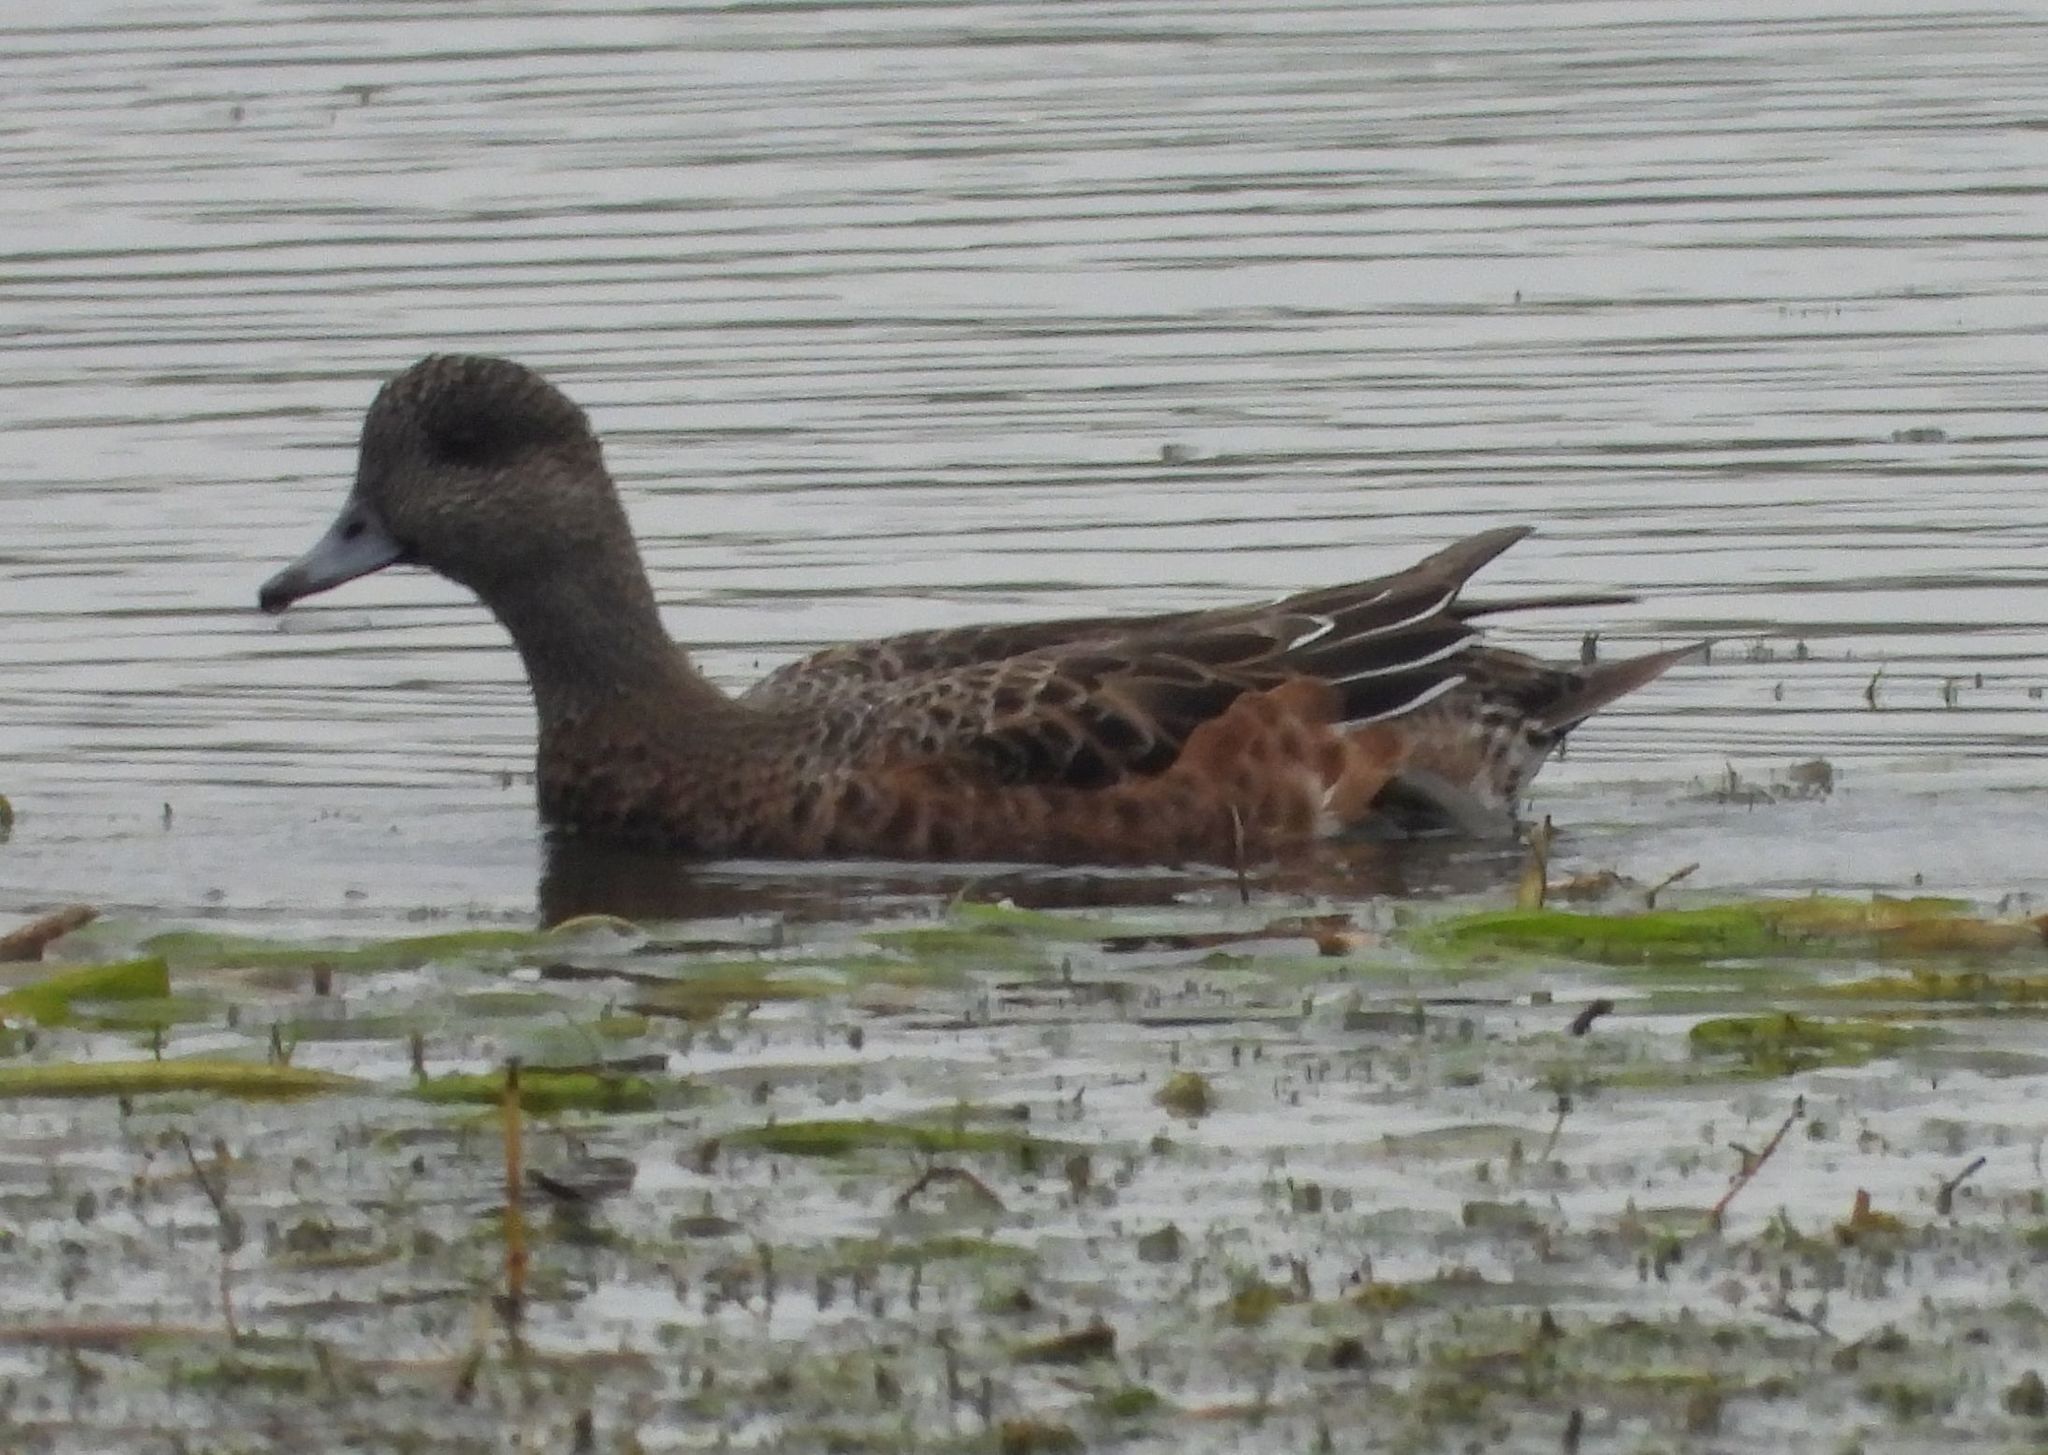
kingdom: Animalia
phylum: Chordata
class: Aves
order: Anseriformes
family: Anatidae
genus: Mareca
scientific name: Mareca americana
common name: American wigeon
